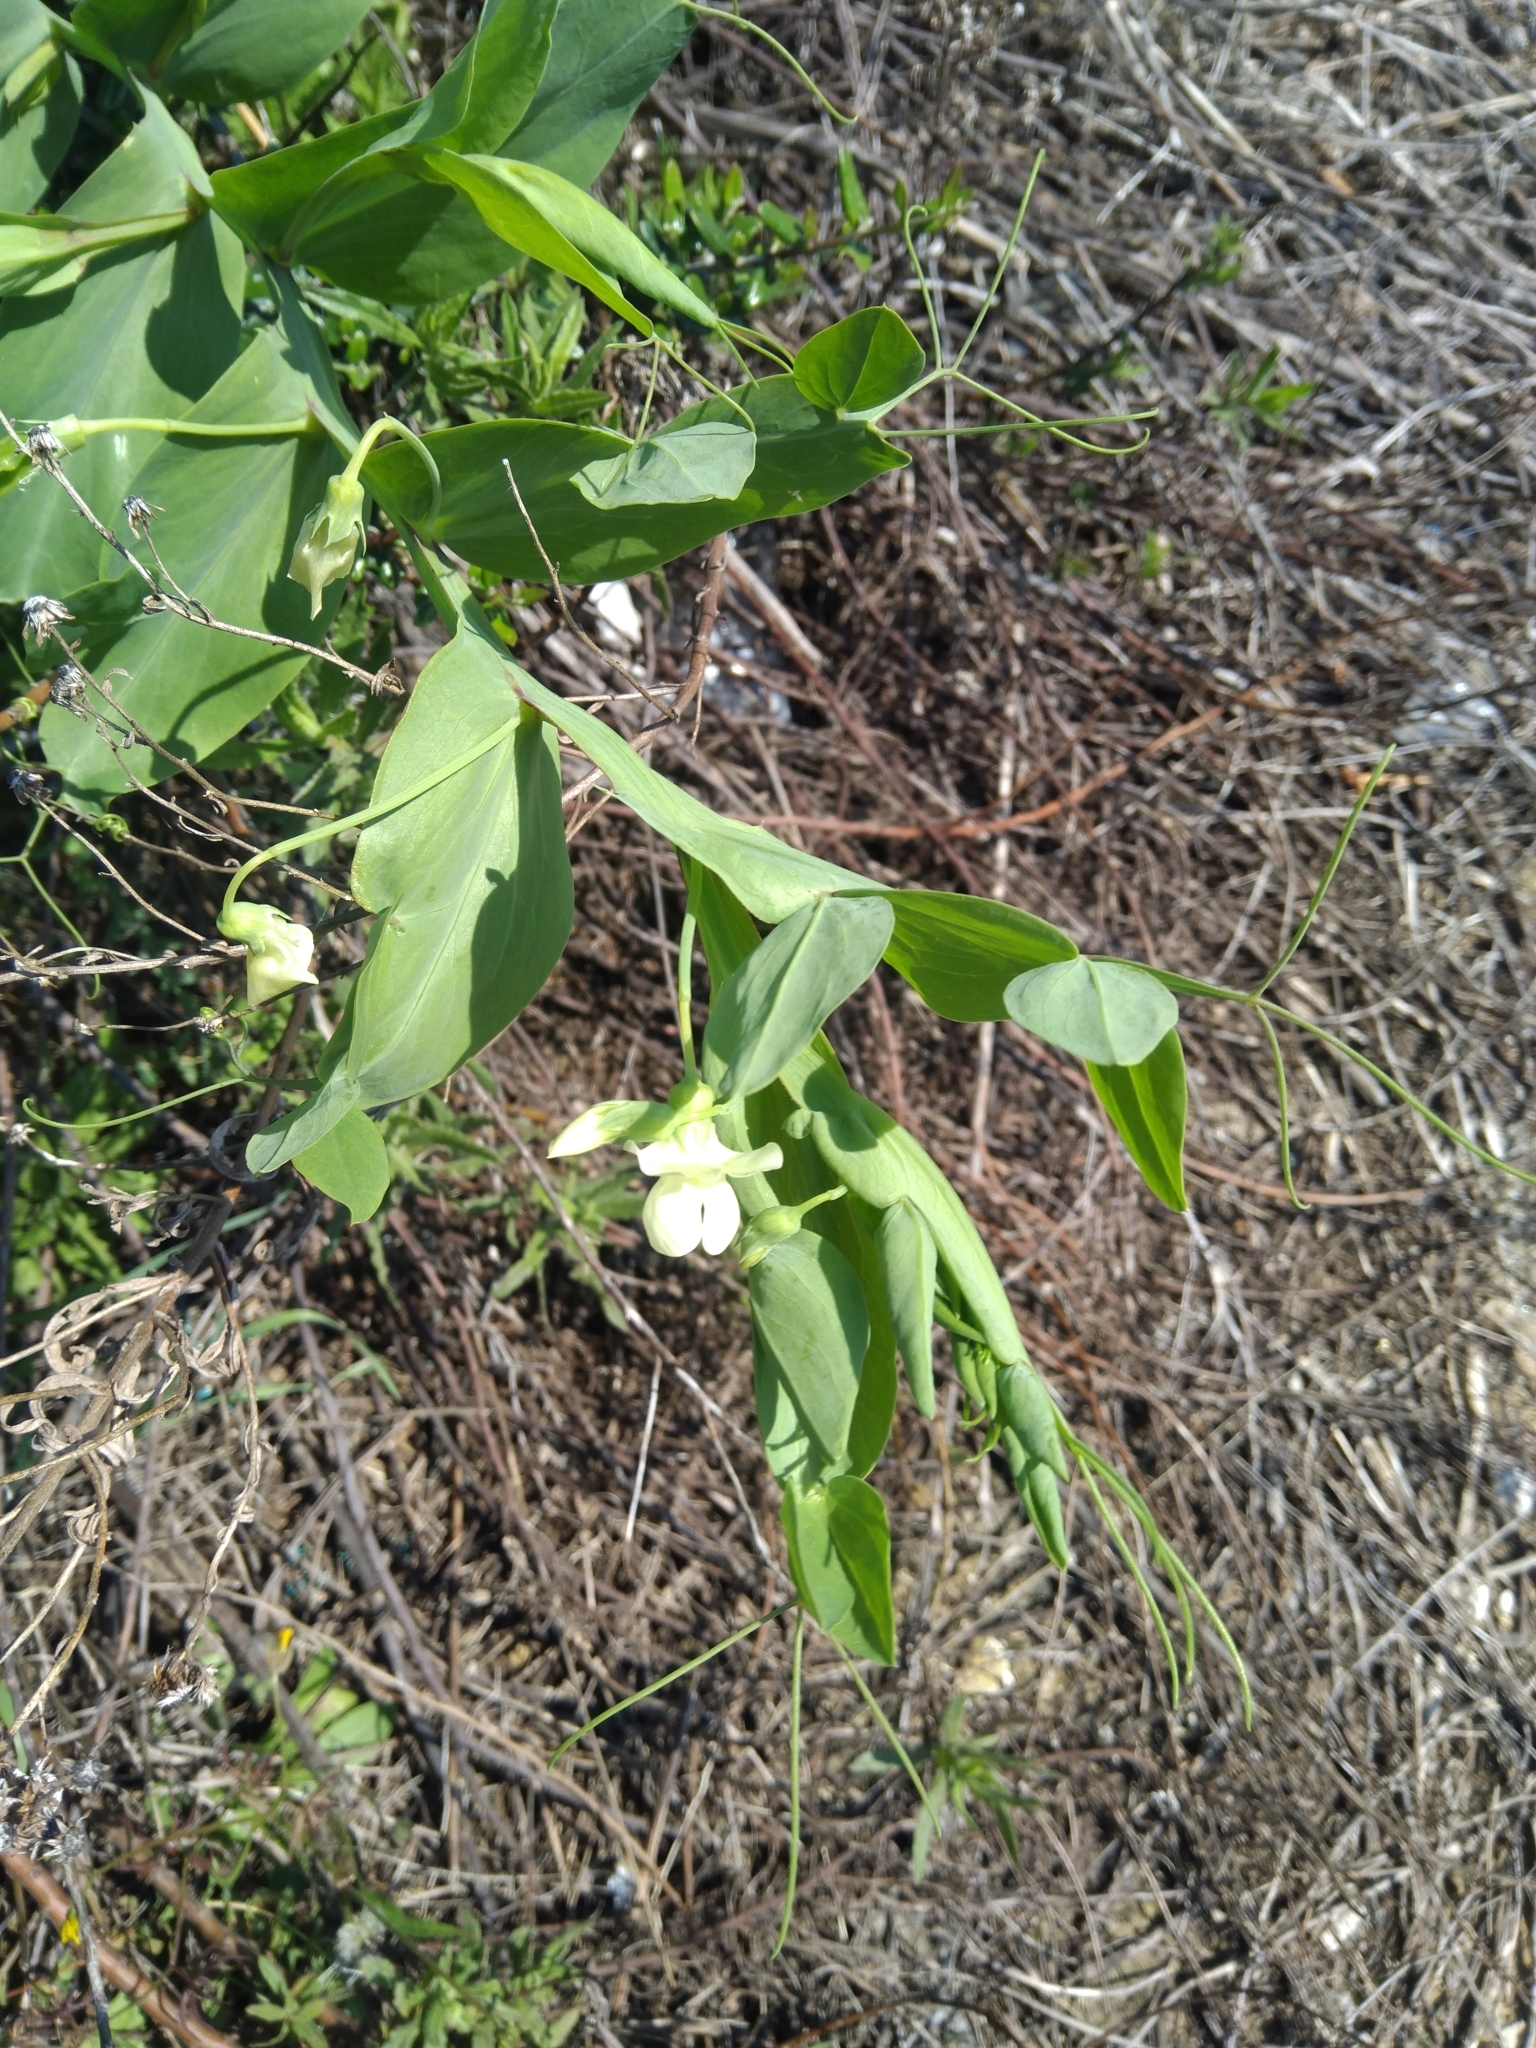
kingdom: Plantae
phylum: Tracheophyta
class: Magnoliopsida
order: Fabales
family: Fabaceae
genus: Lathyrus
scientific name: Lathyrus aphaca
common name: Yellow vetchling
